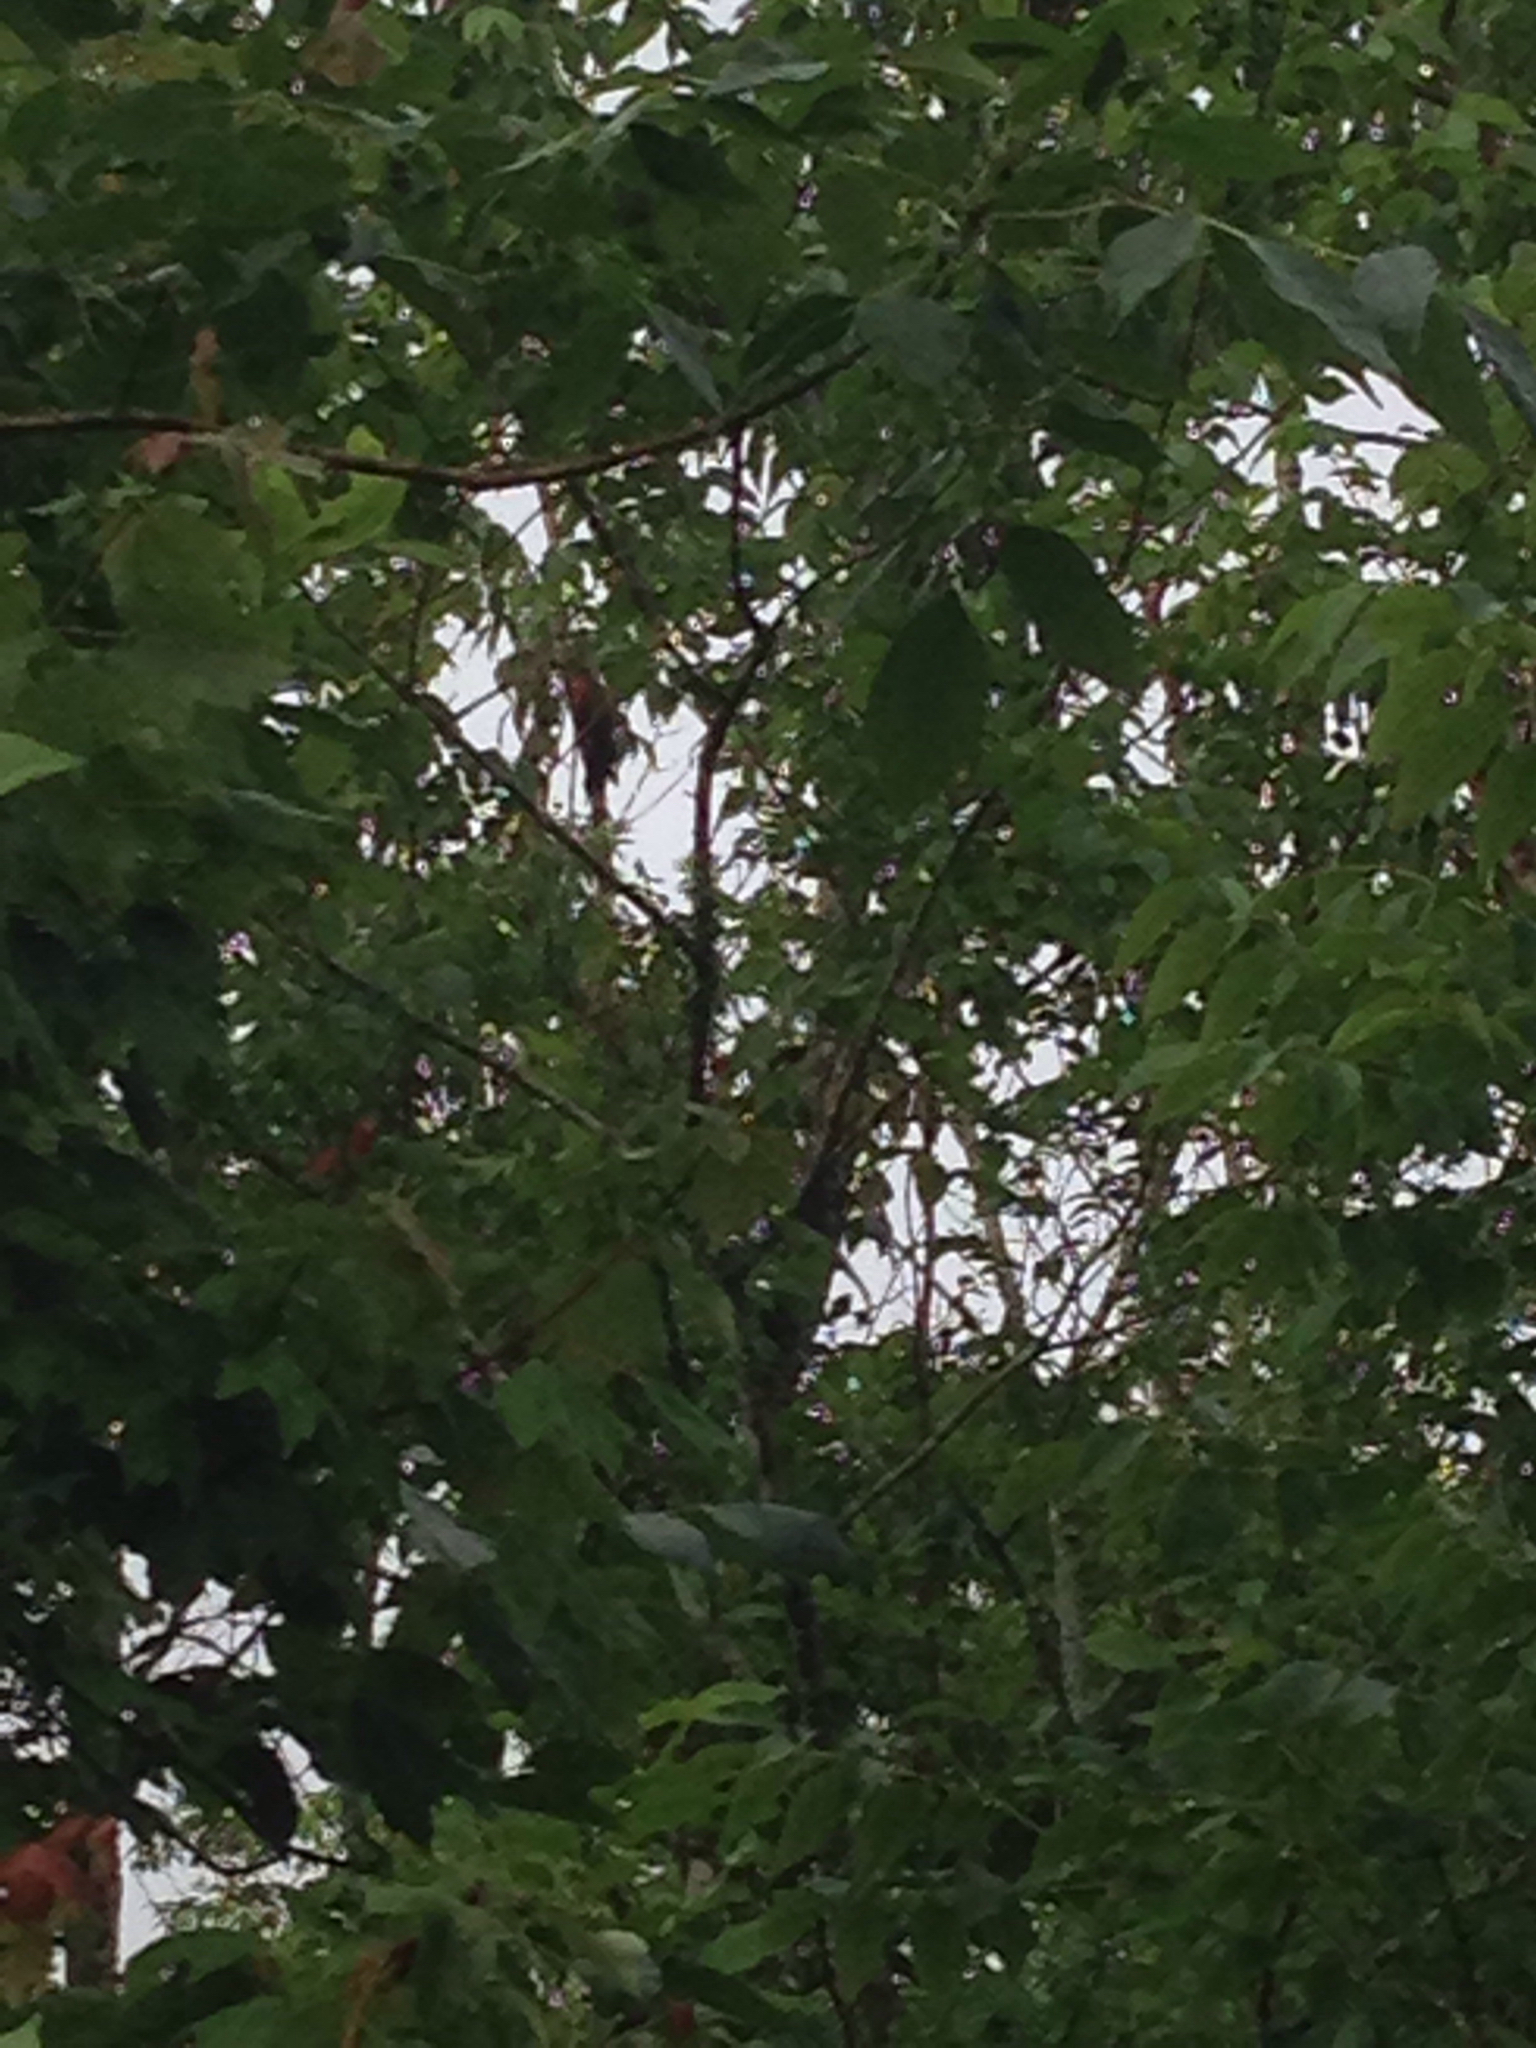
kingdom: Animalia
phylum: Chordata
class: Aves
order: Piciformes
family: Picidae
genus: Dryocopus
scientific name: Dryocopus pileatus
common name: Pileated woodpecker
